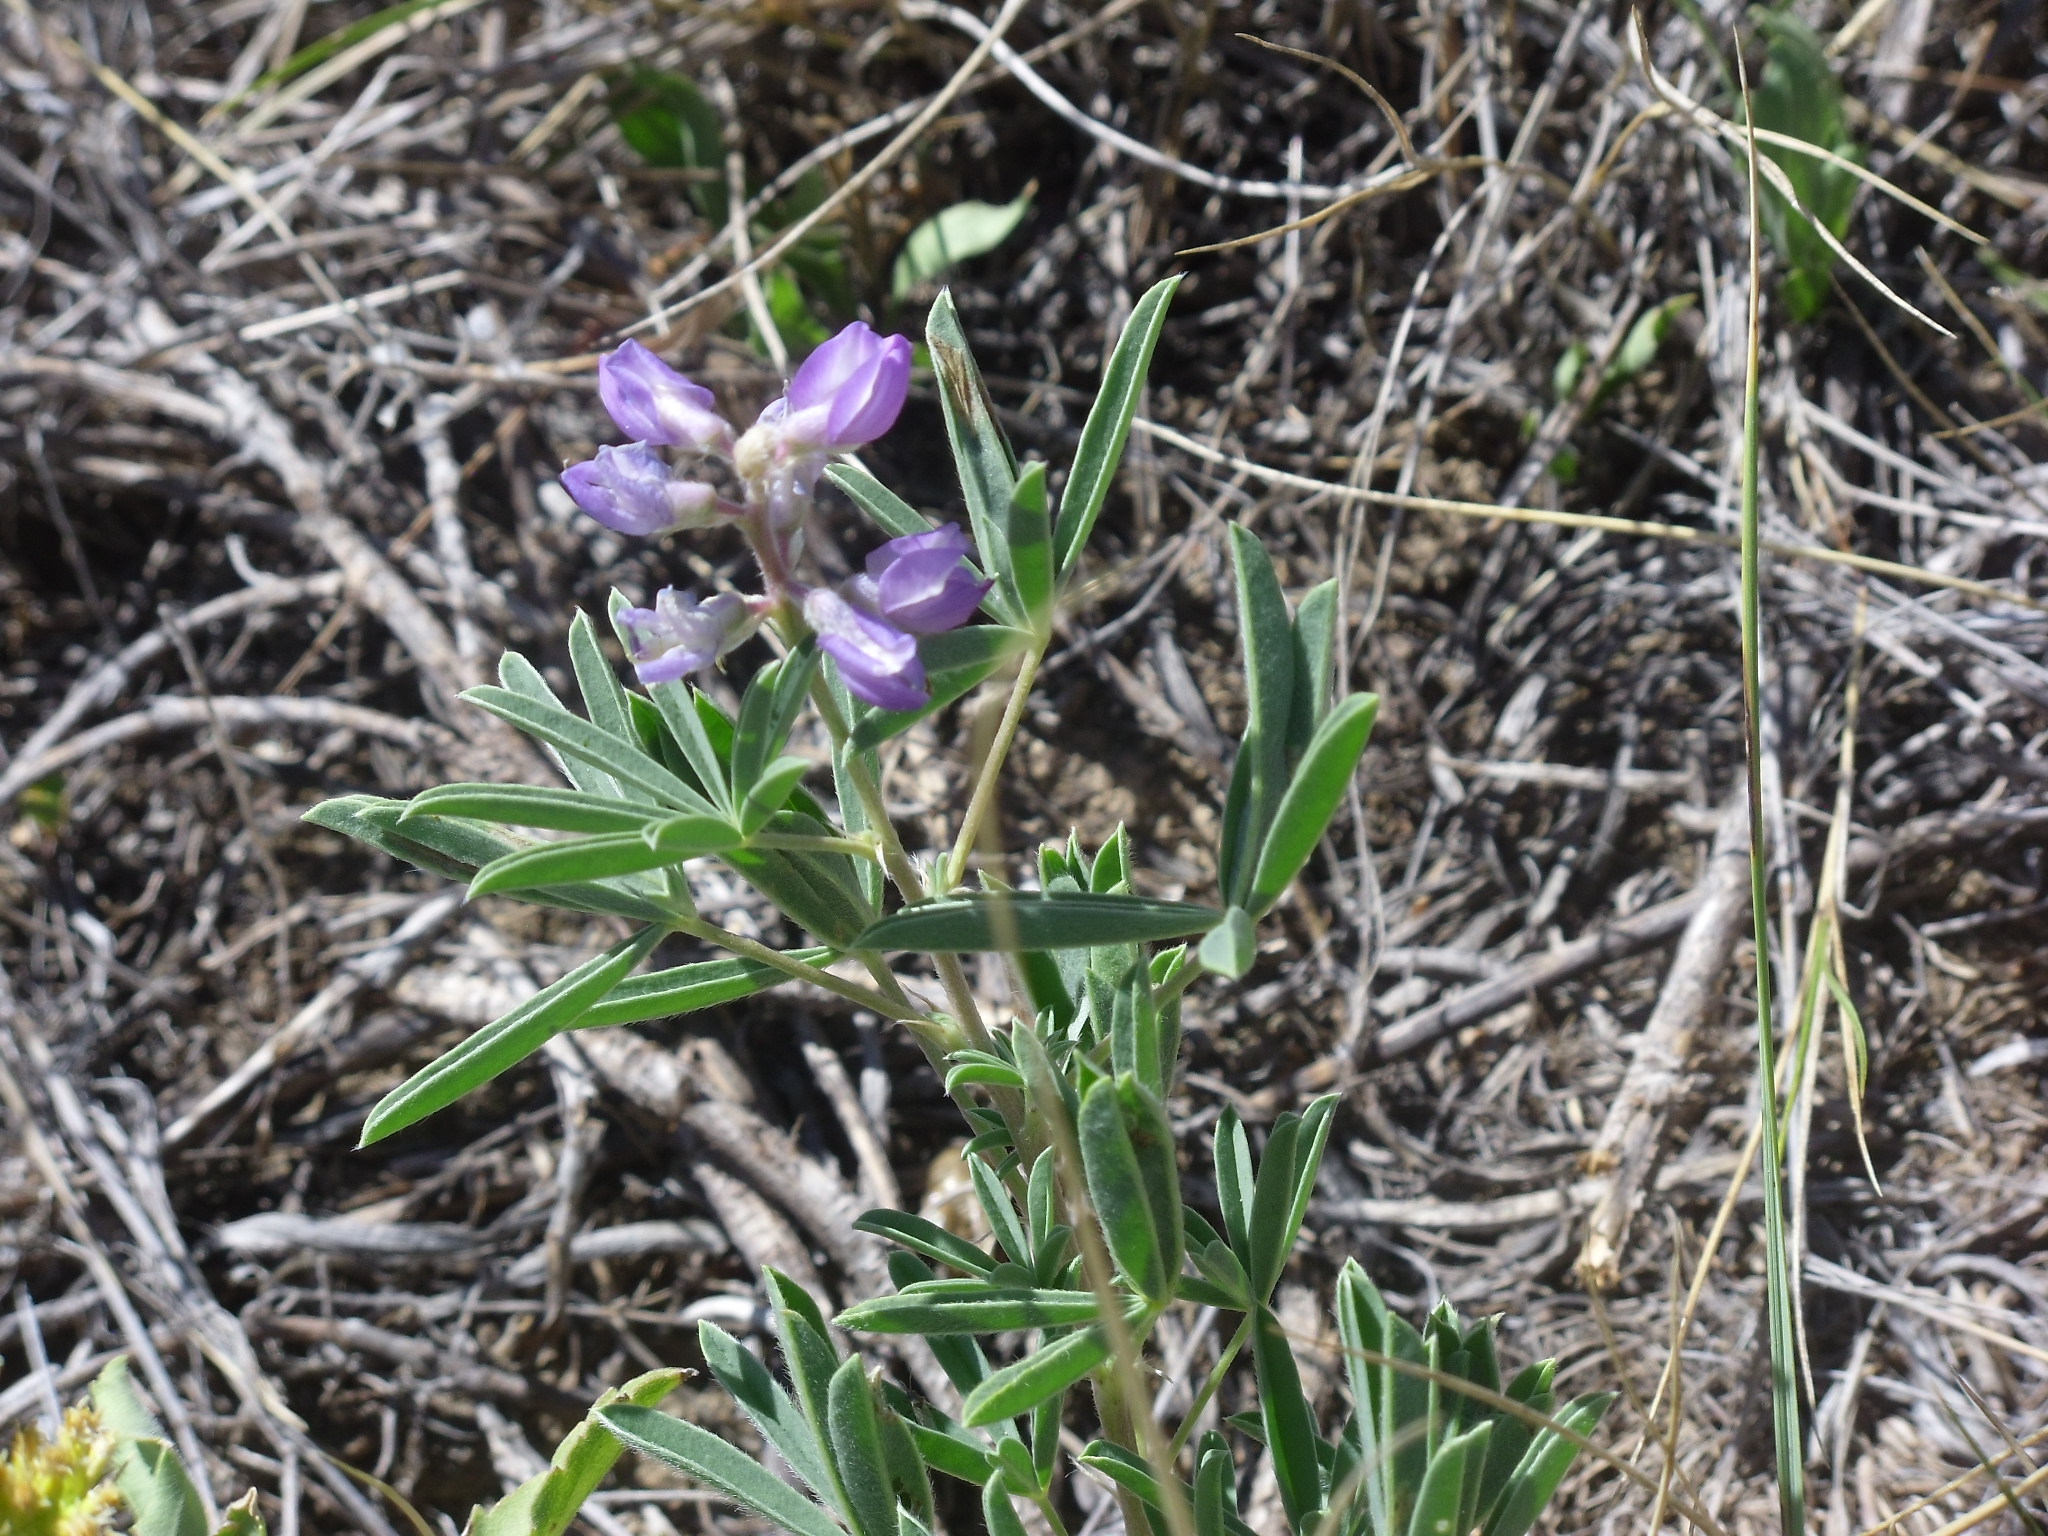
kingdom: Plantae
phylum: Tracheophyta
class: Magnoliopsida
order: Fabales
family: Fabaceae
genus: Lupinus
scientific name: Lupinus argenteus
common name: Silvery lupine
